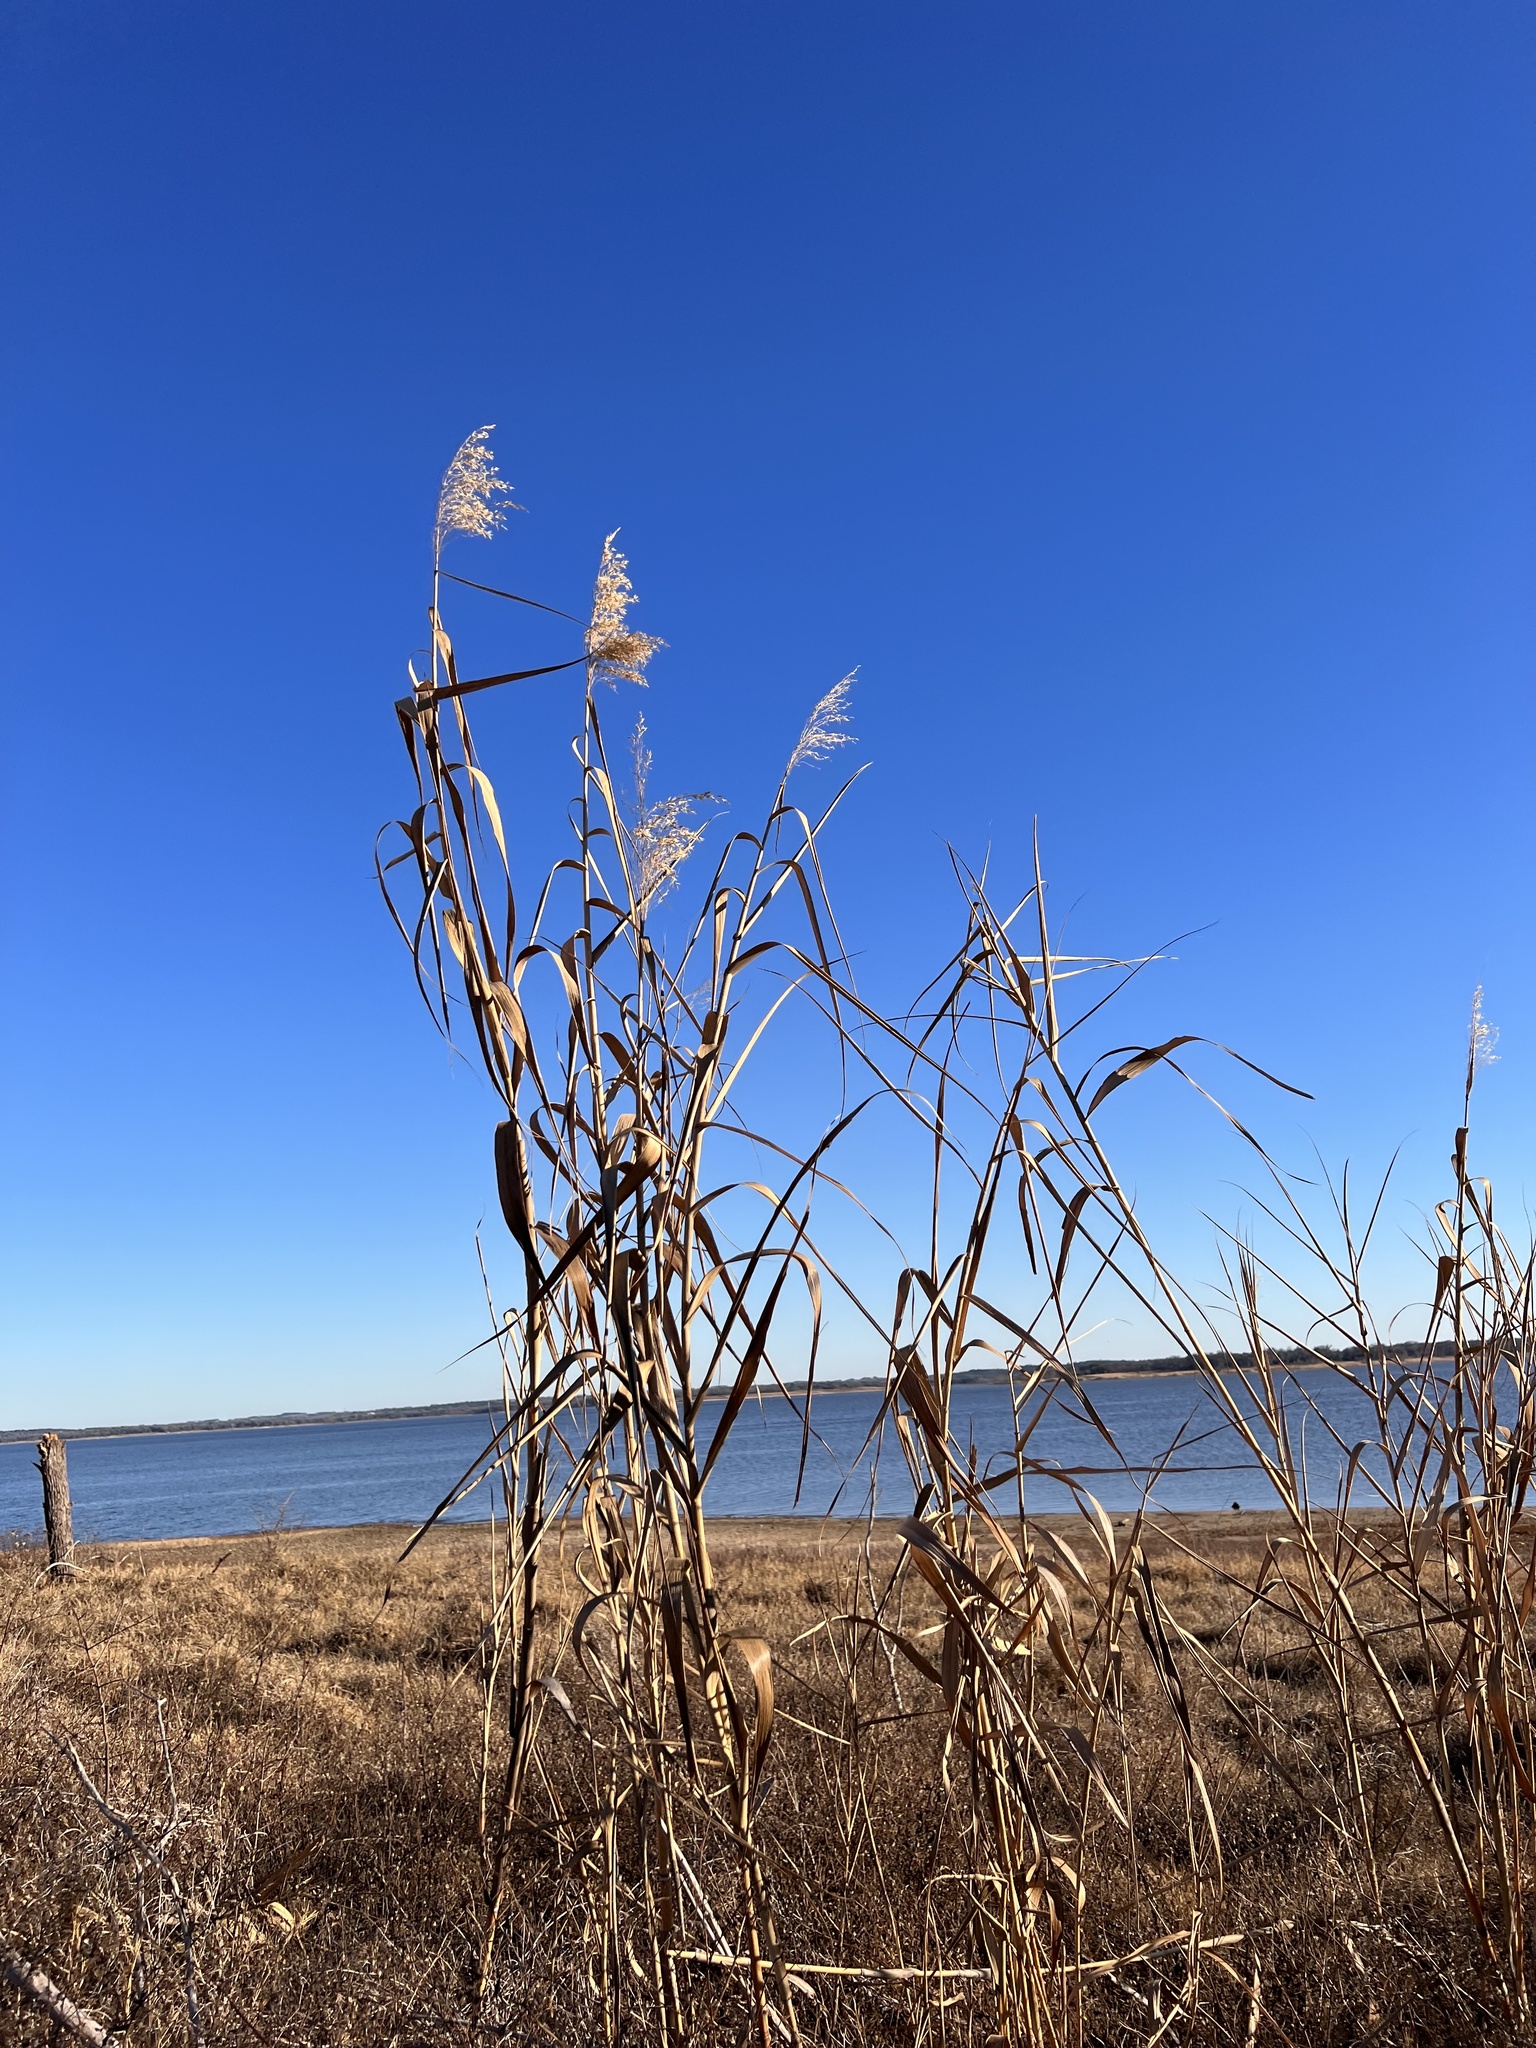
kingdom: Plantae
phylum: Tracheophyta
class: Liliopsida
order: Poales
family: Poaceae
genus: Phragmites
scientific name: Phragmites australis
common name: Common reed
